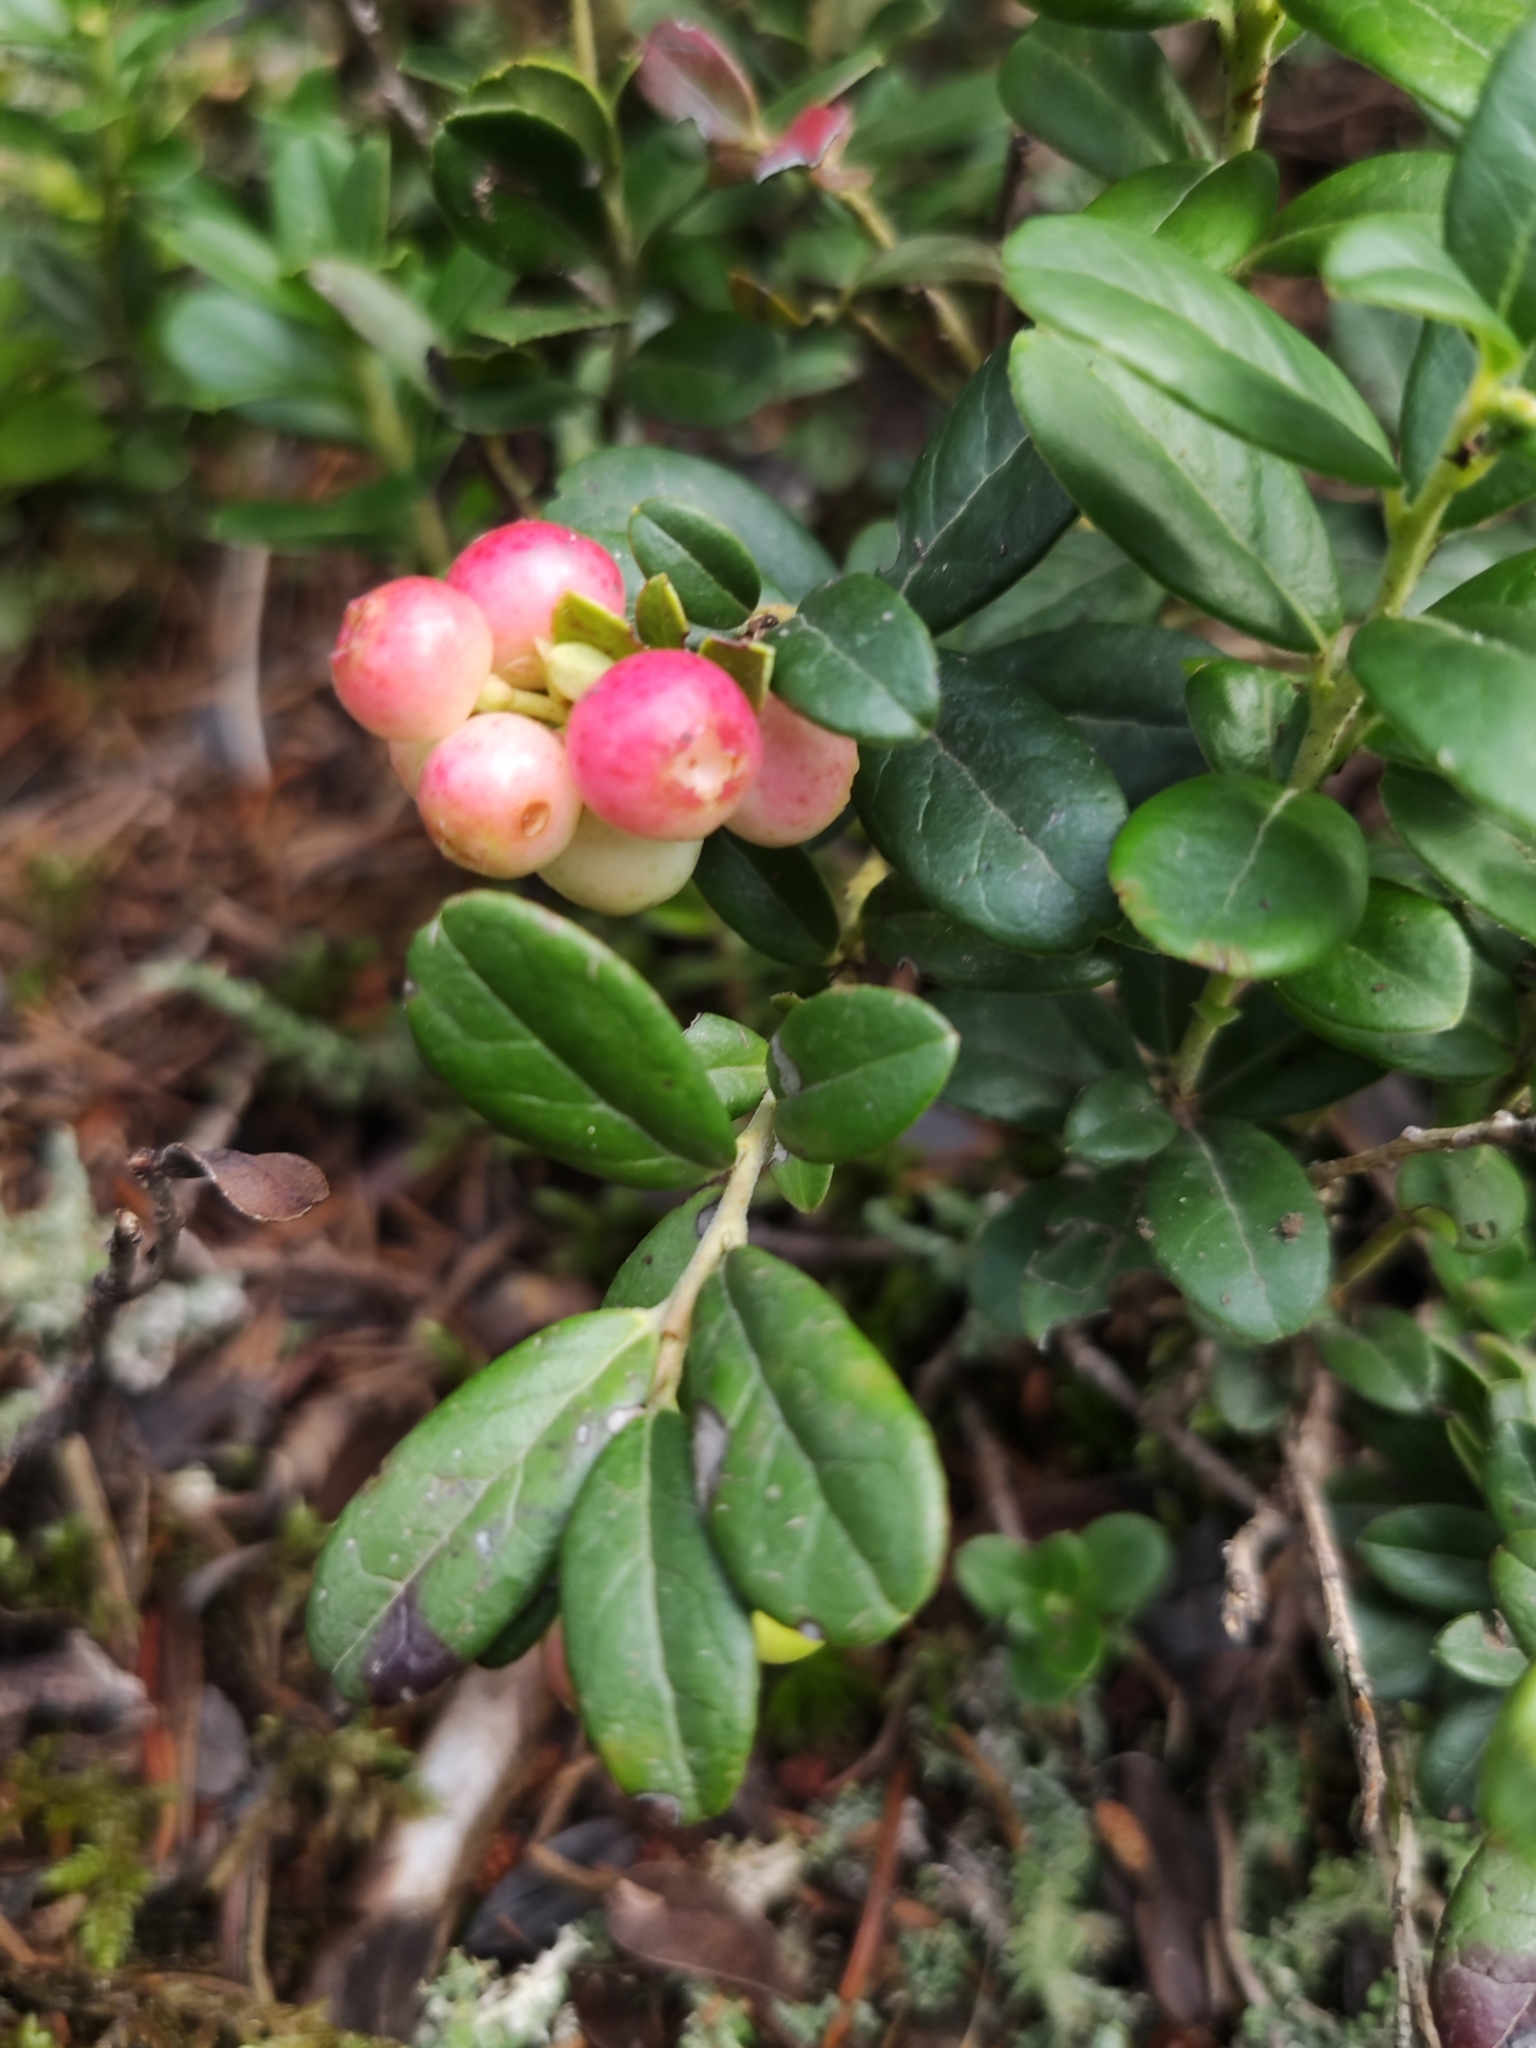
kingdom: Plantae
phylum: Tracheophyta
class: Magnoliopsida
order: Ericales
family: Ericaceae
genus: Vaccinium
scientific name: Vaccinium vitis-idaea
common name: Cowberry
